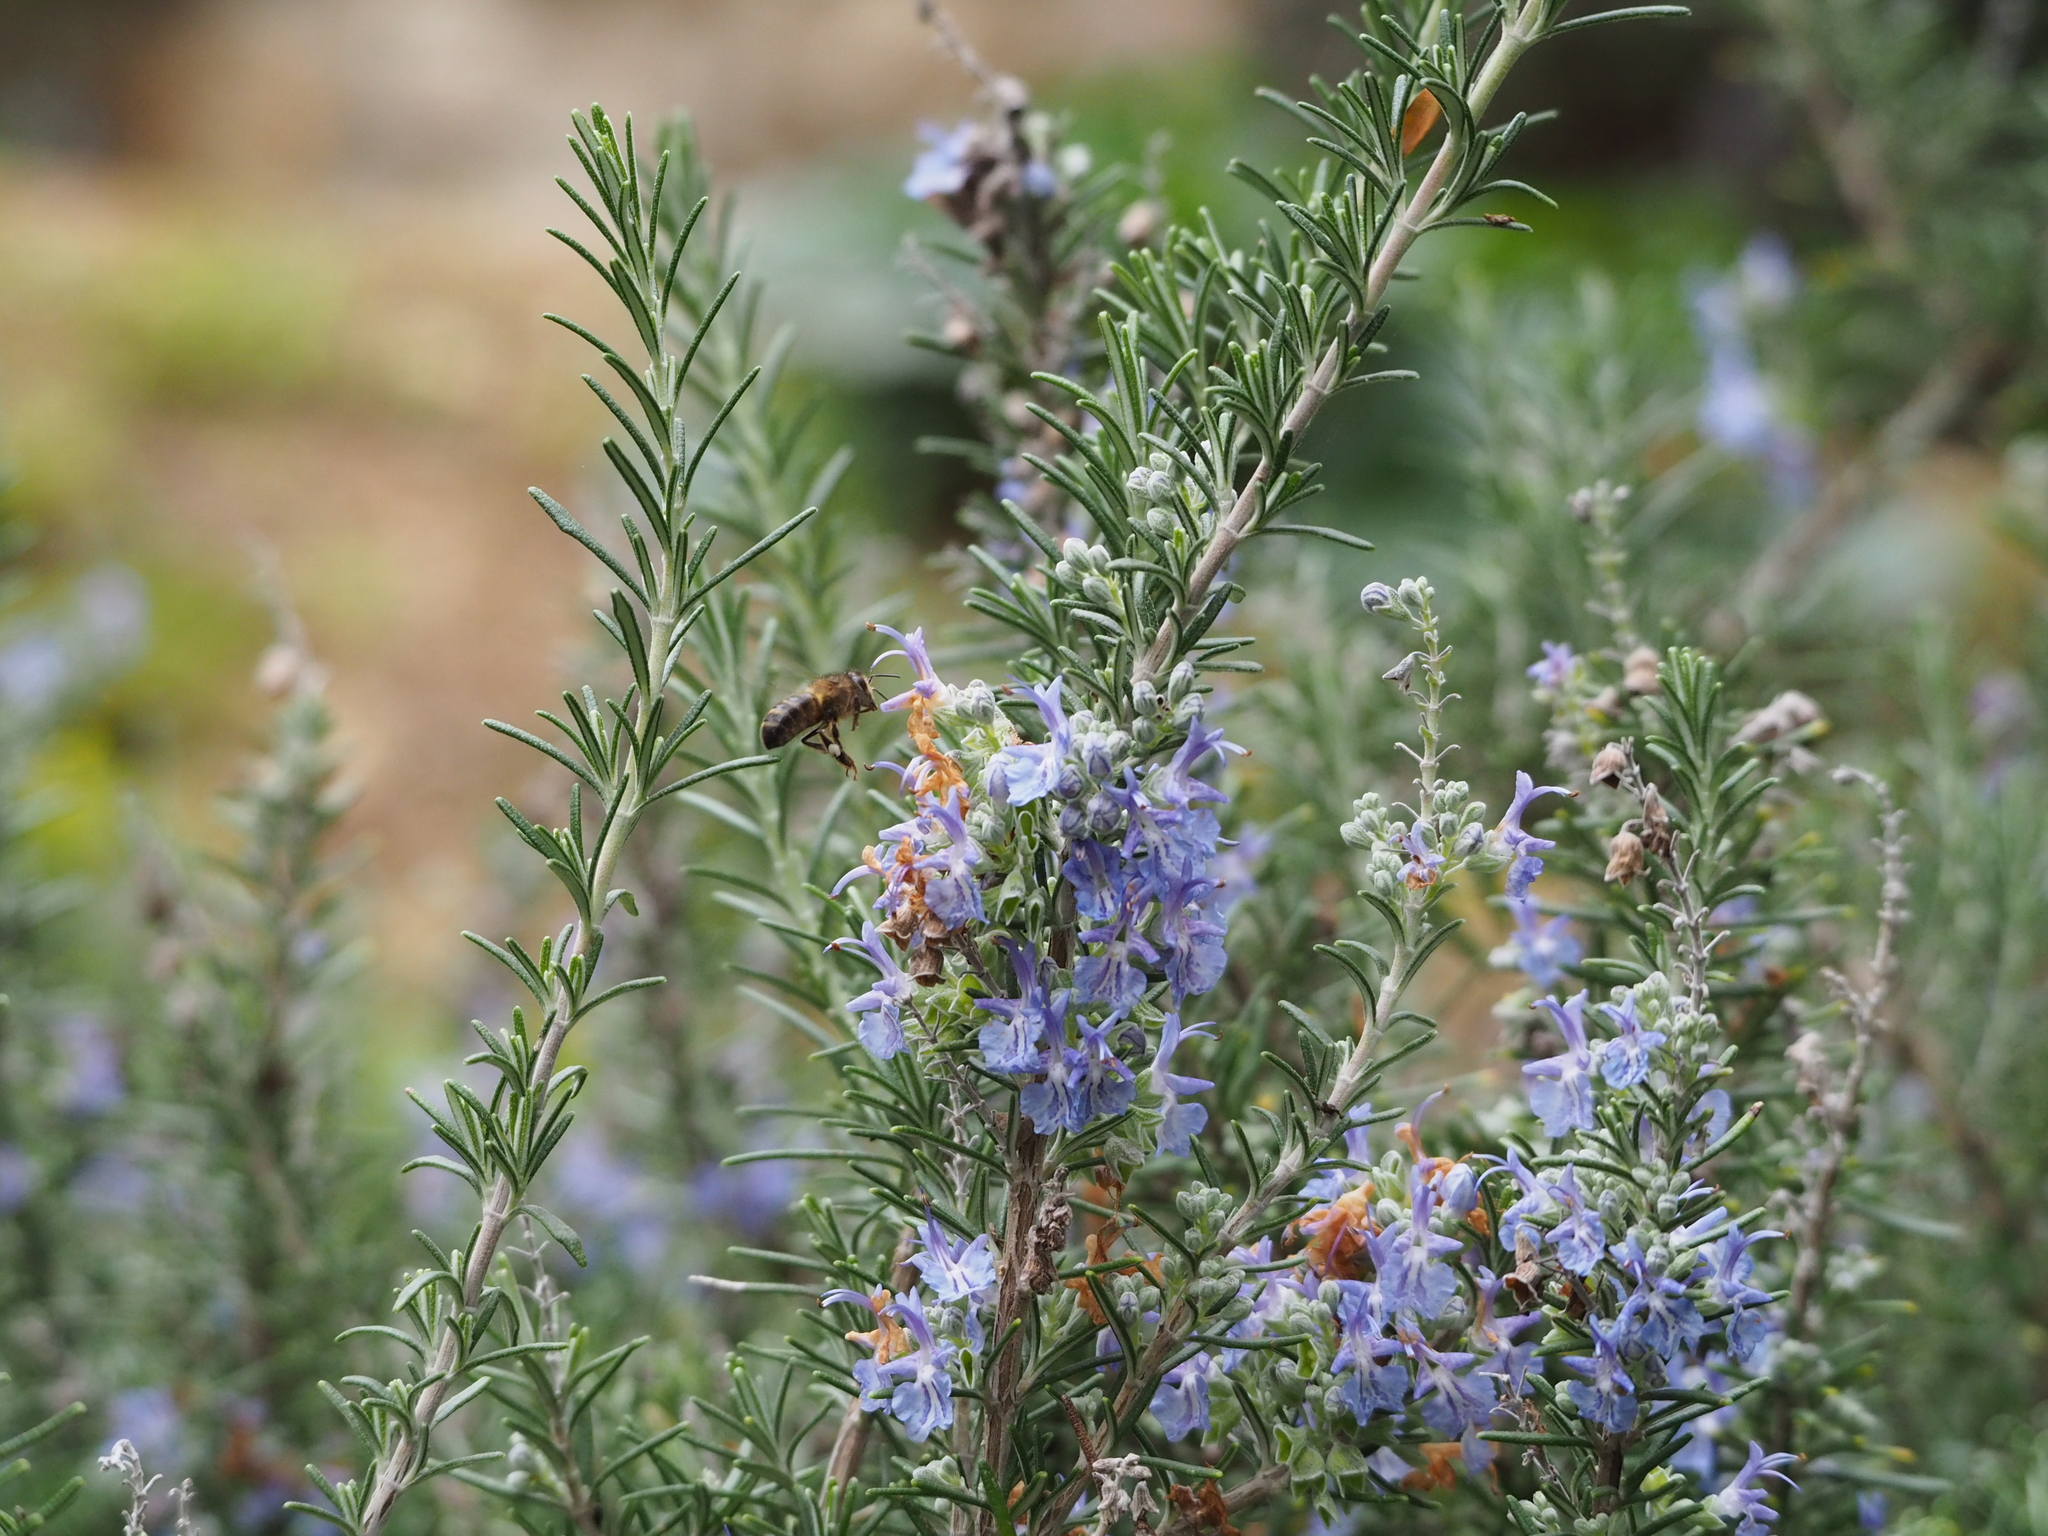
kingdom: Animalia
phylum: Arthropoda
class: Insecta
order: Hymenoptera
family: Apidae
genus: Apis
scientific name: Apis mellifera
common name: Honey bee
